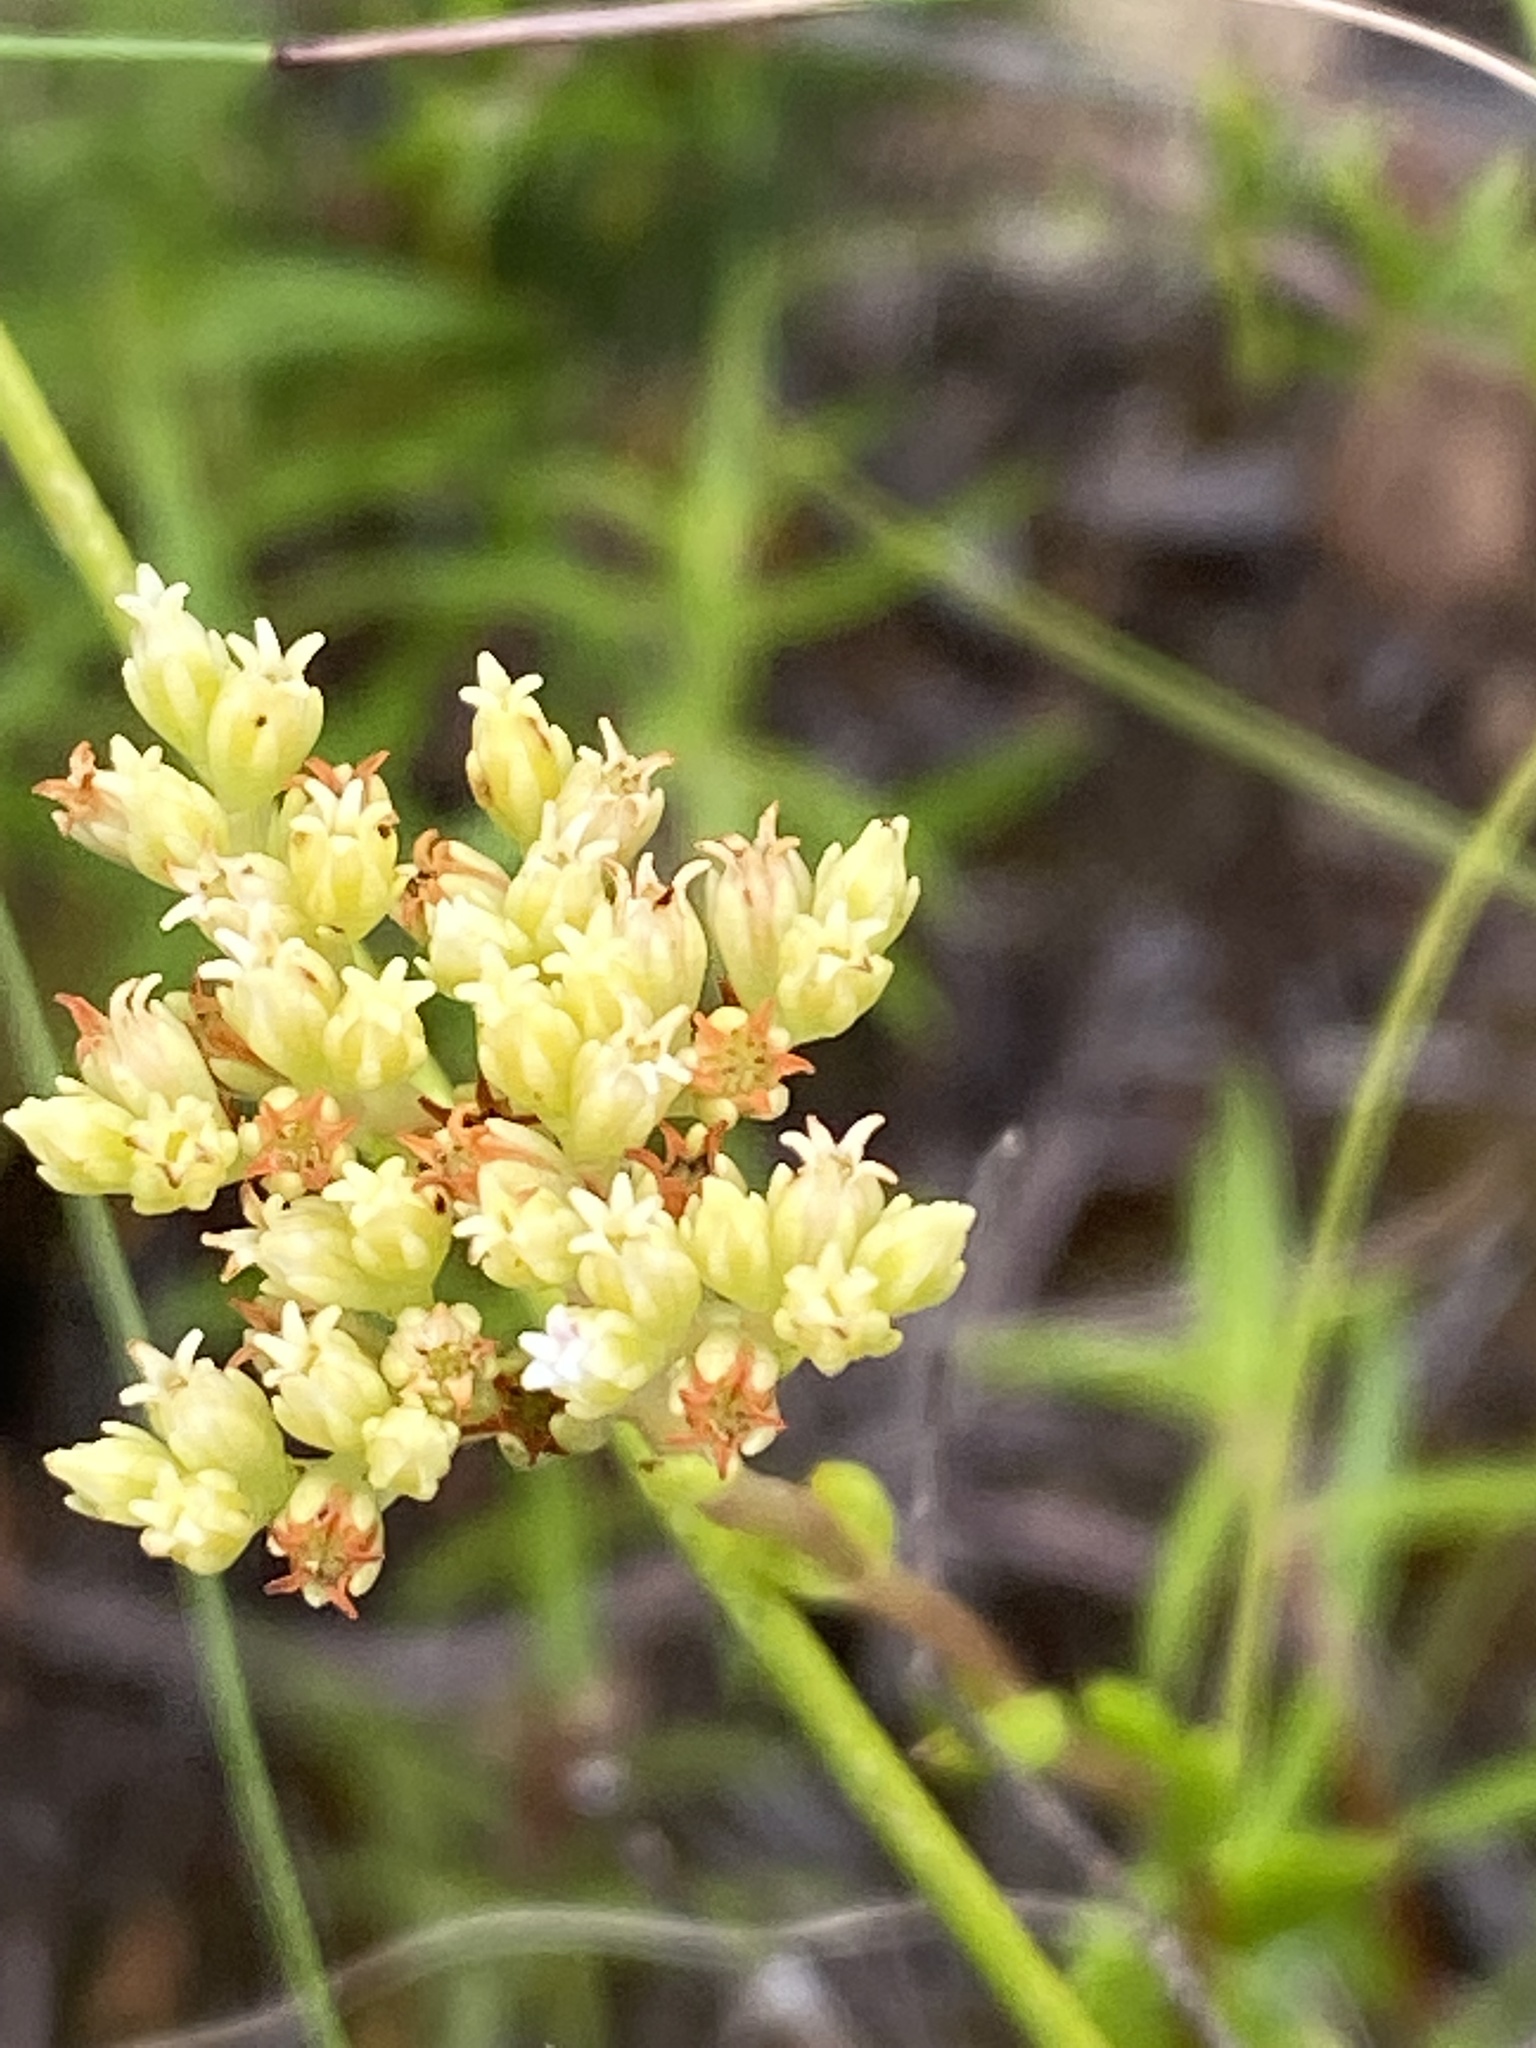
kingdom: Plantae
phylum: Tracheophyta
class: Magnoliopsida
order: Saxifragales
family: Crassulaceae
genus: Crassula
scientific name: Crassula subulata
